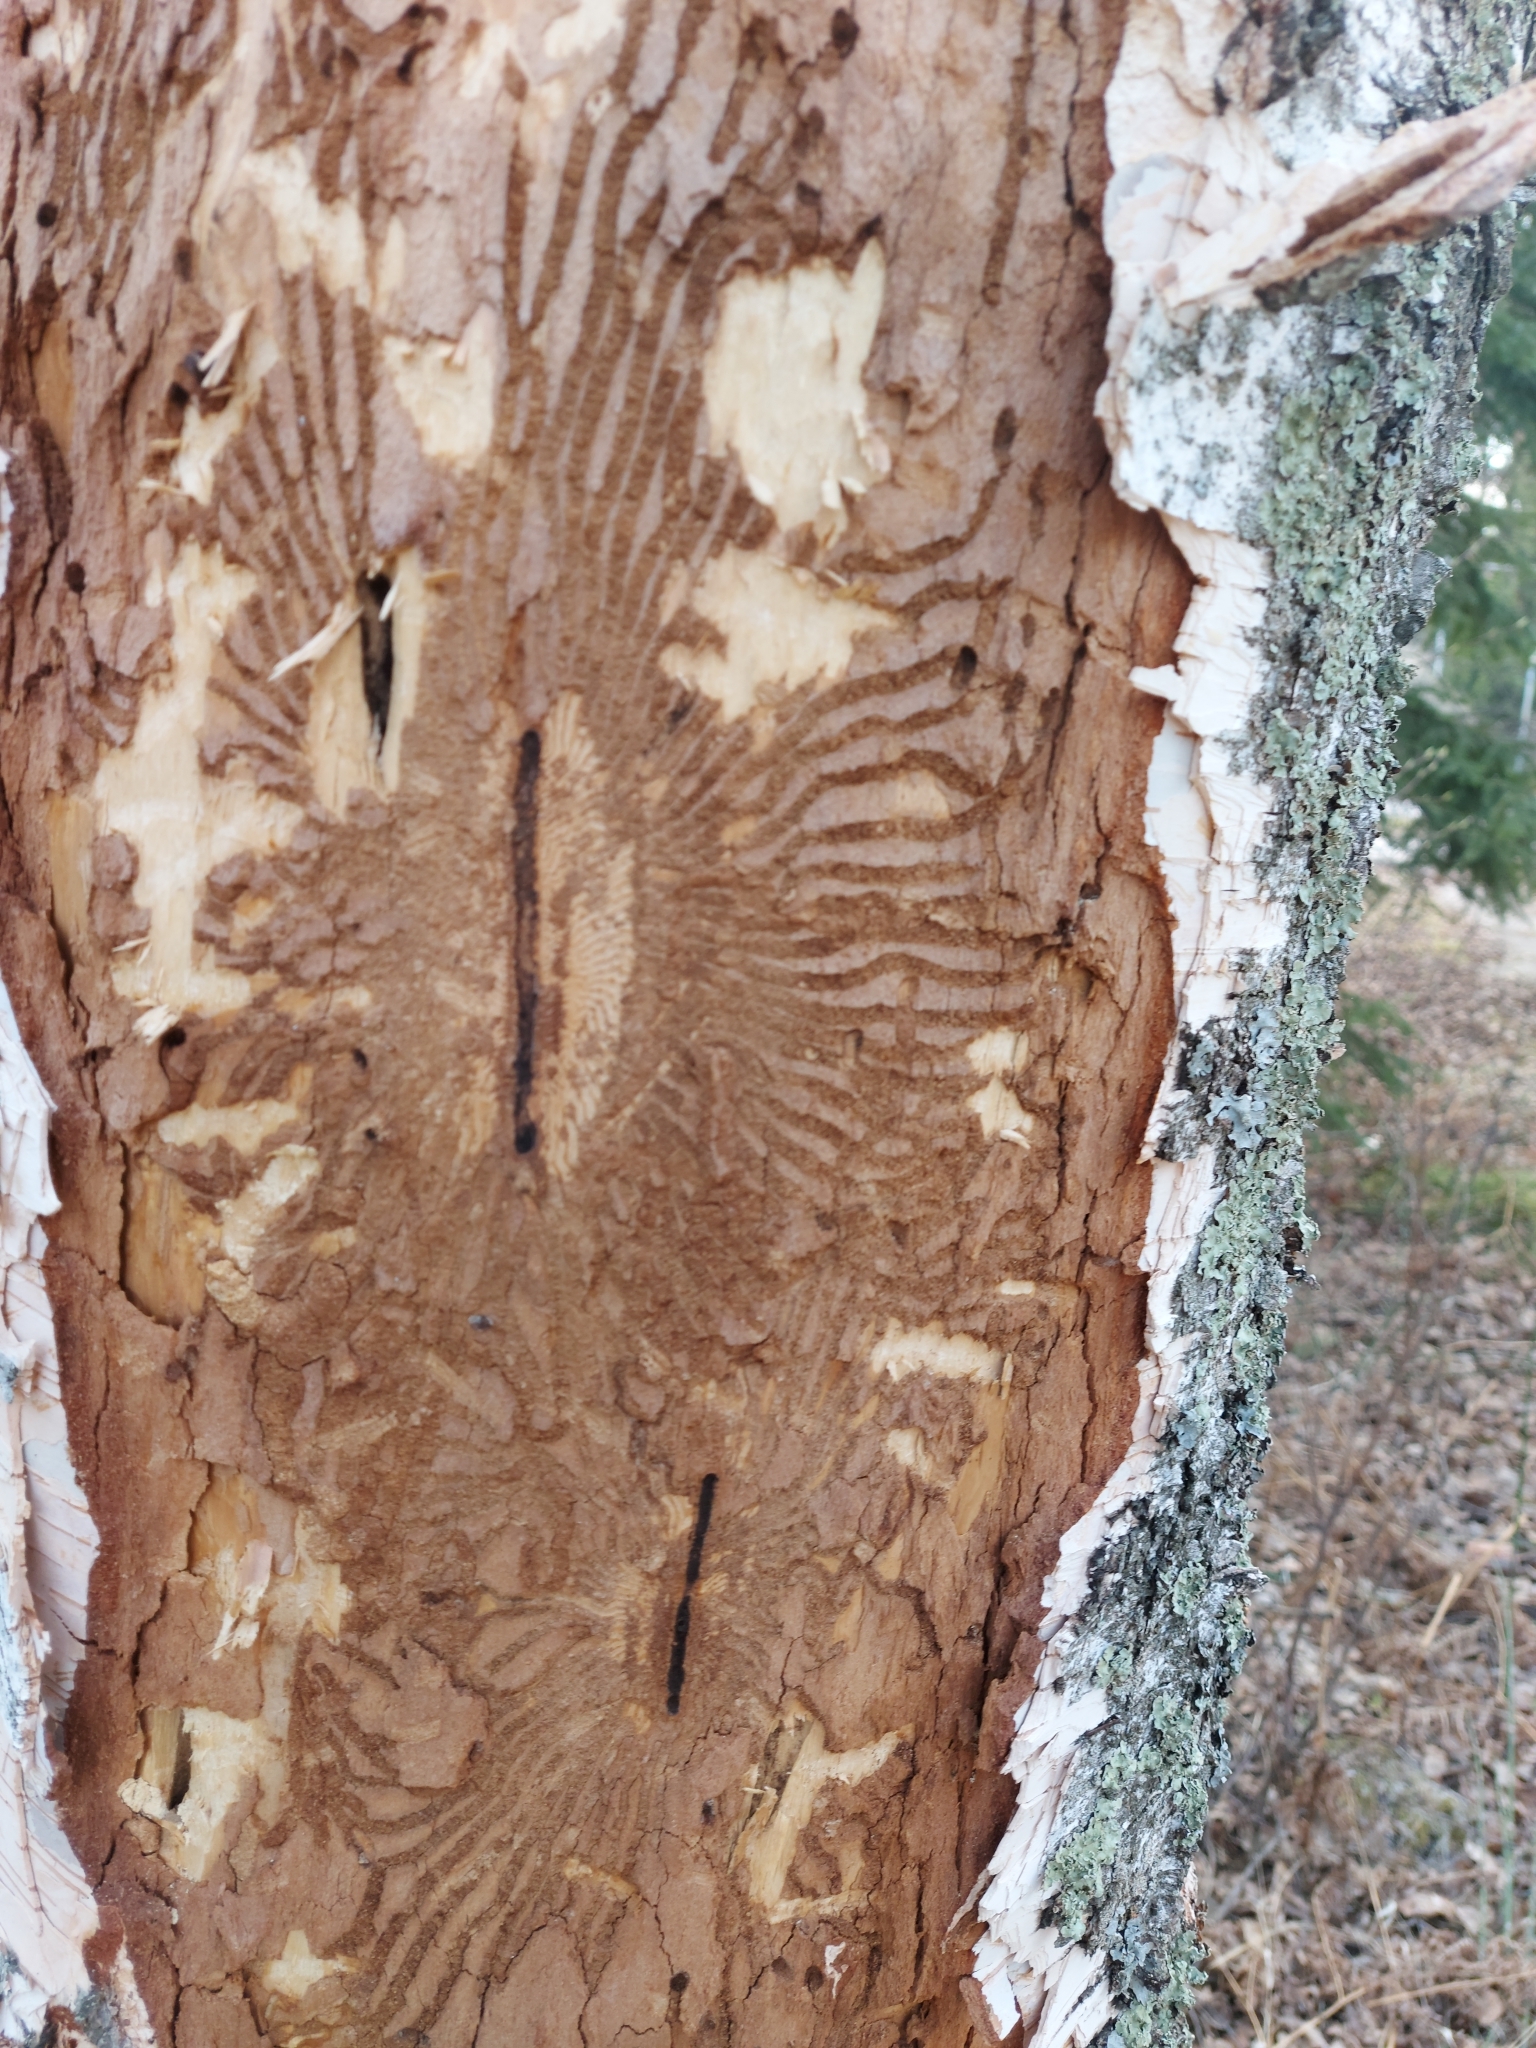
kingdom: Animalia
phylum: Arthropoda
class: Insecta
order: Coleoptera
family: Curculionidae
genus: Scolytus
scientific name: Scolytus ratzeburgii
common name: Birch bark beetle
